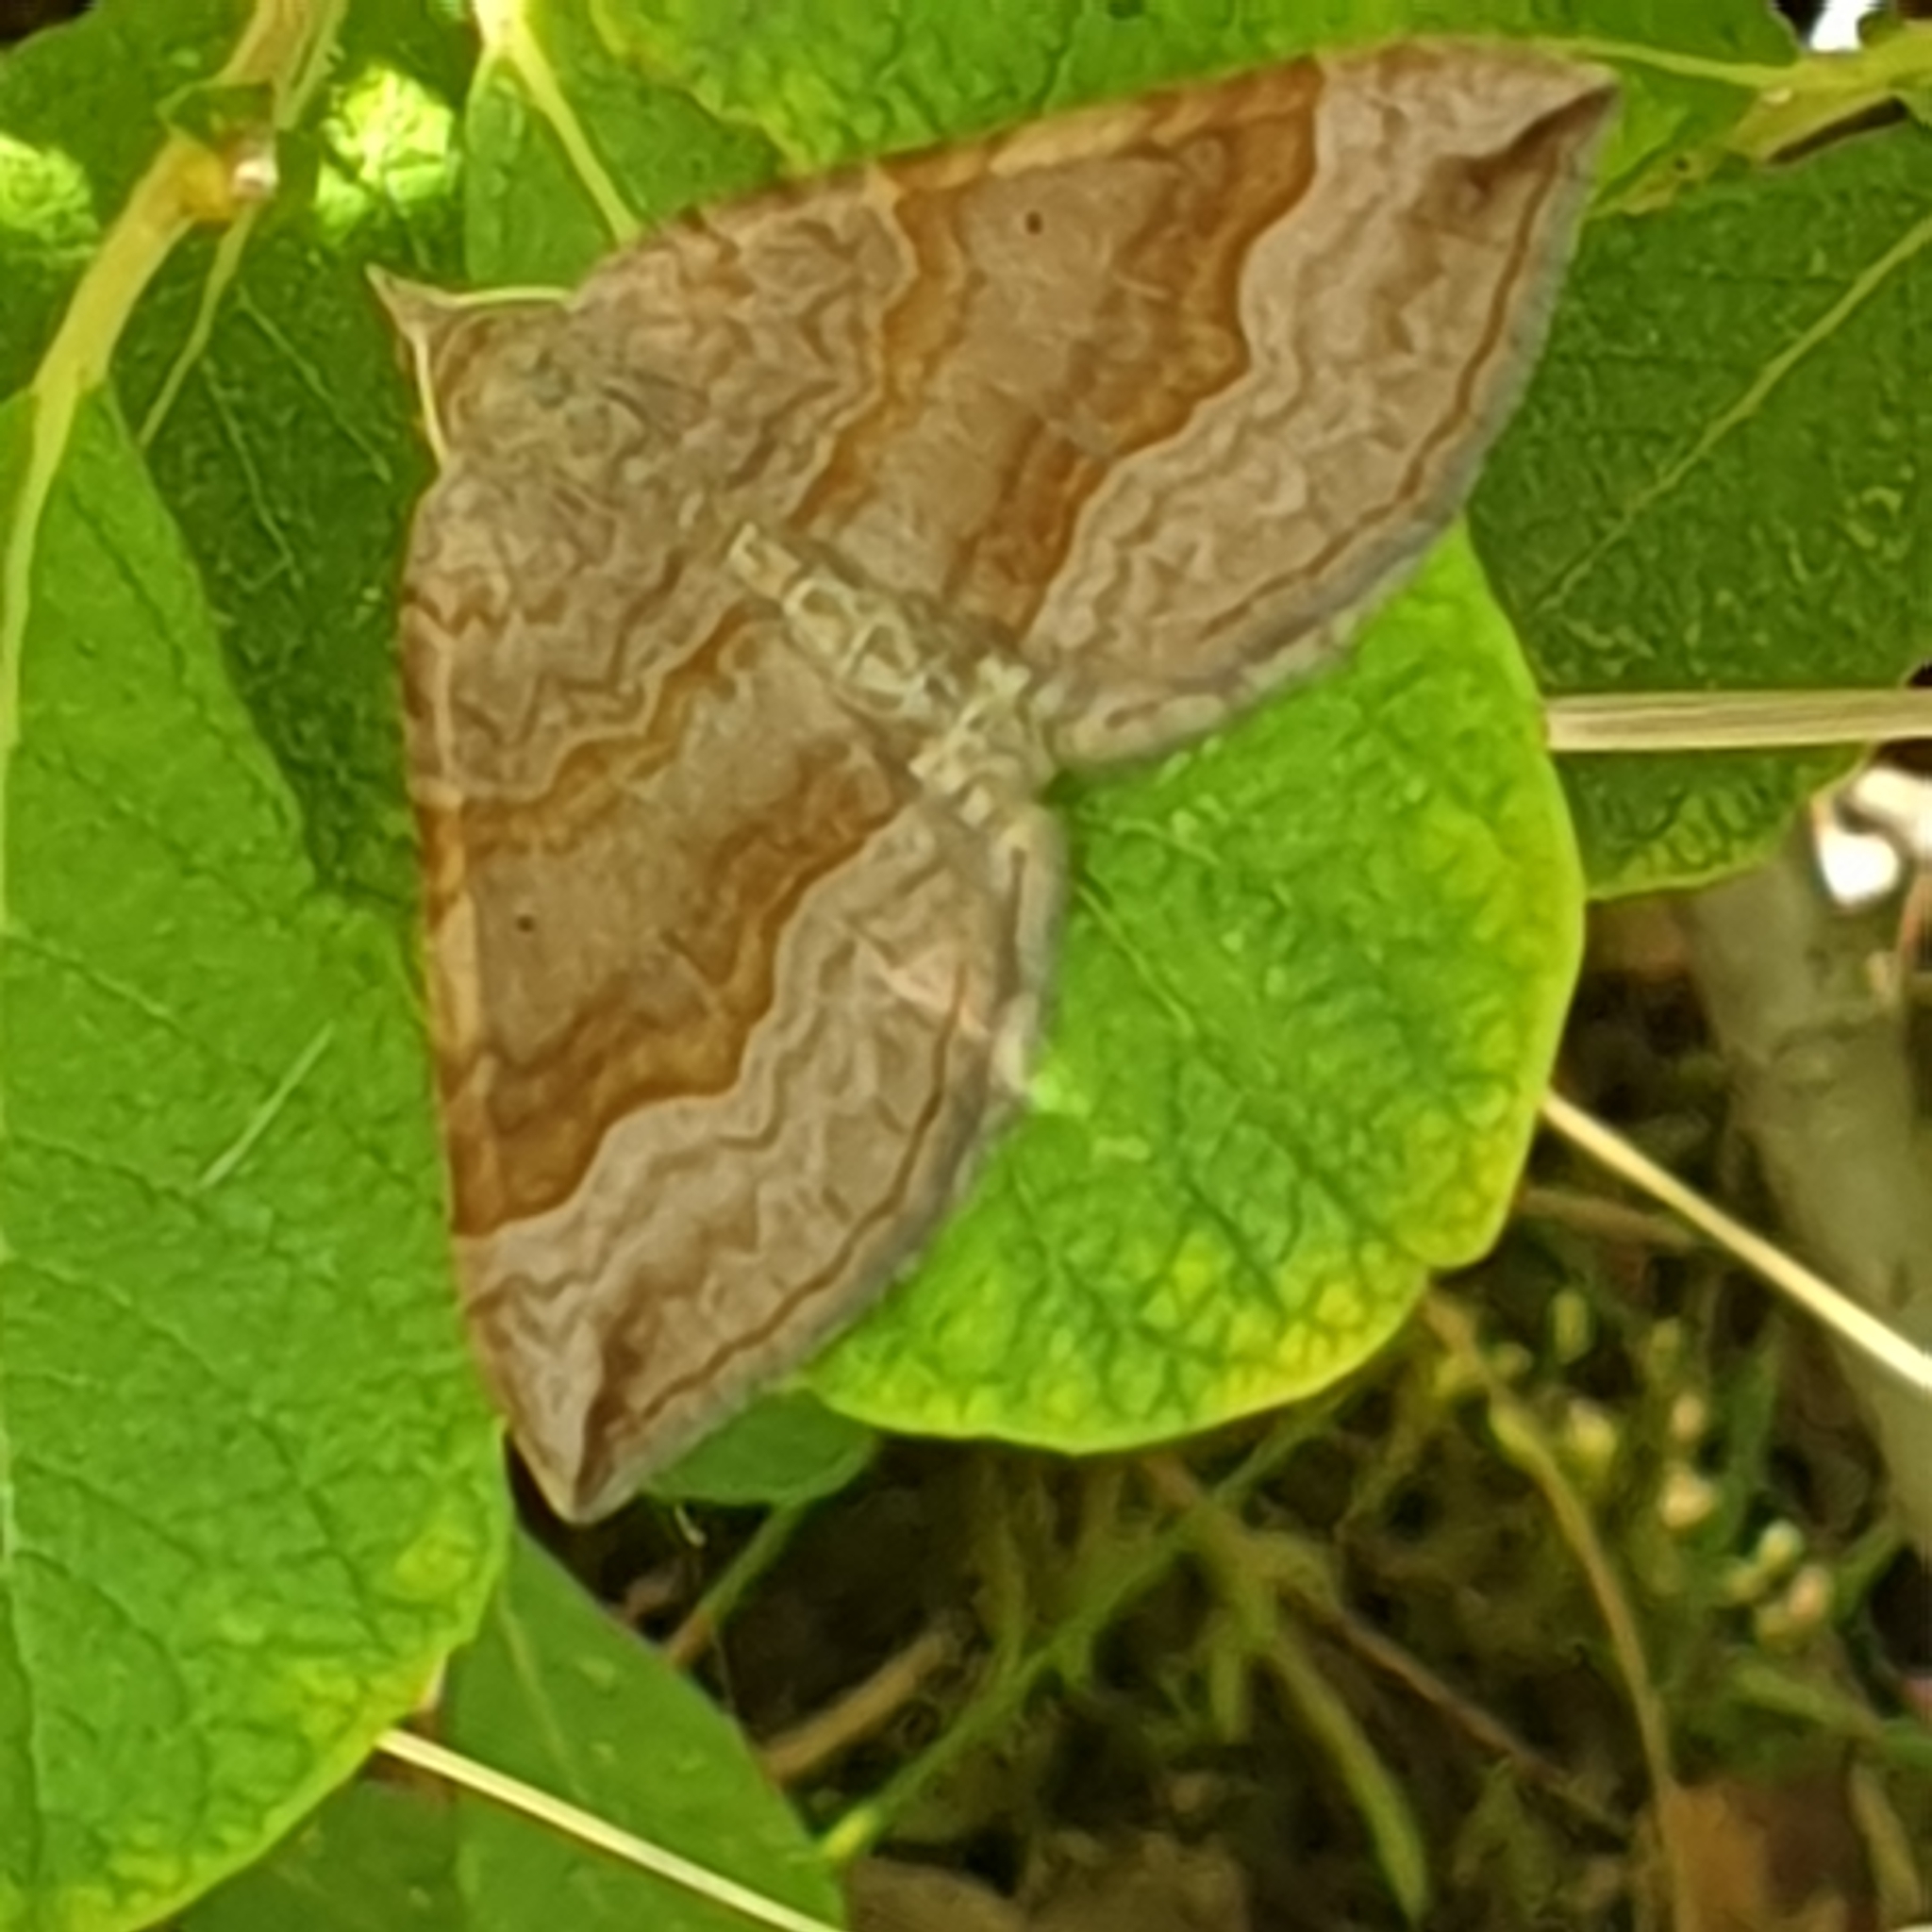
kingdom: Animalia
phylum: Arthropoda
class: Insecta
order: Lepidoptera
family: Geometridae
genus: Scotopteryx
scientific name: Scotopteryx chenopodiata
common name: Shaded broad-bar
